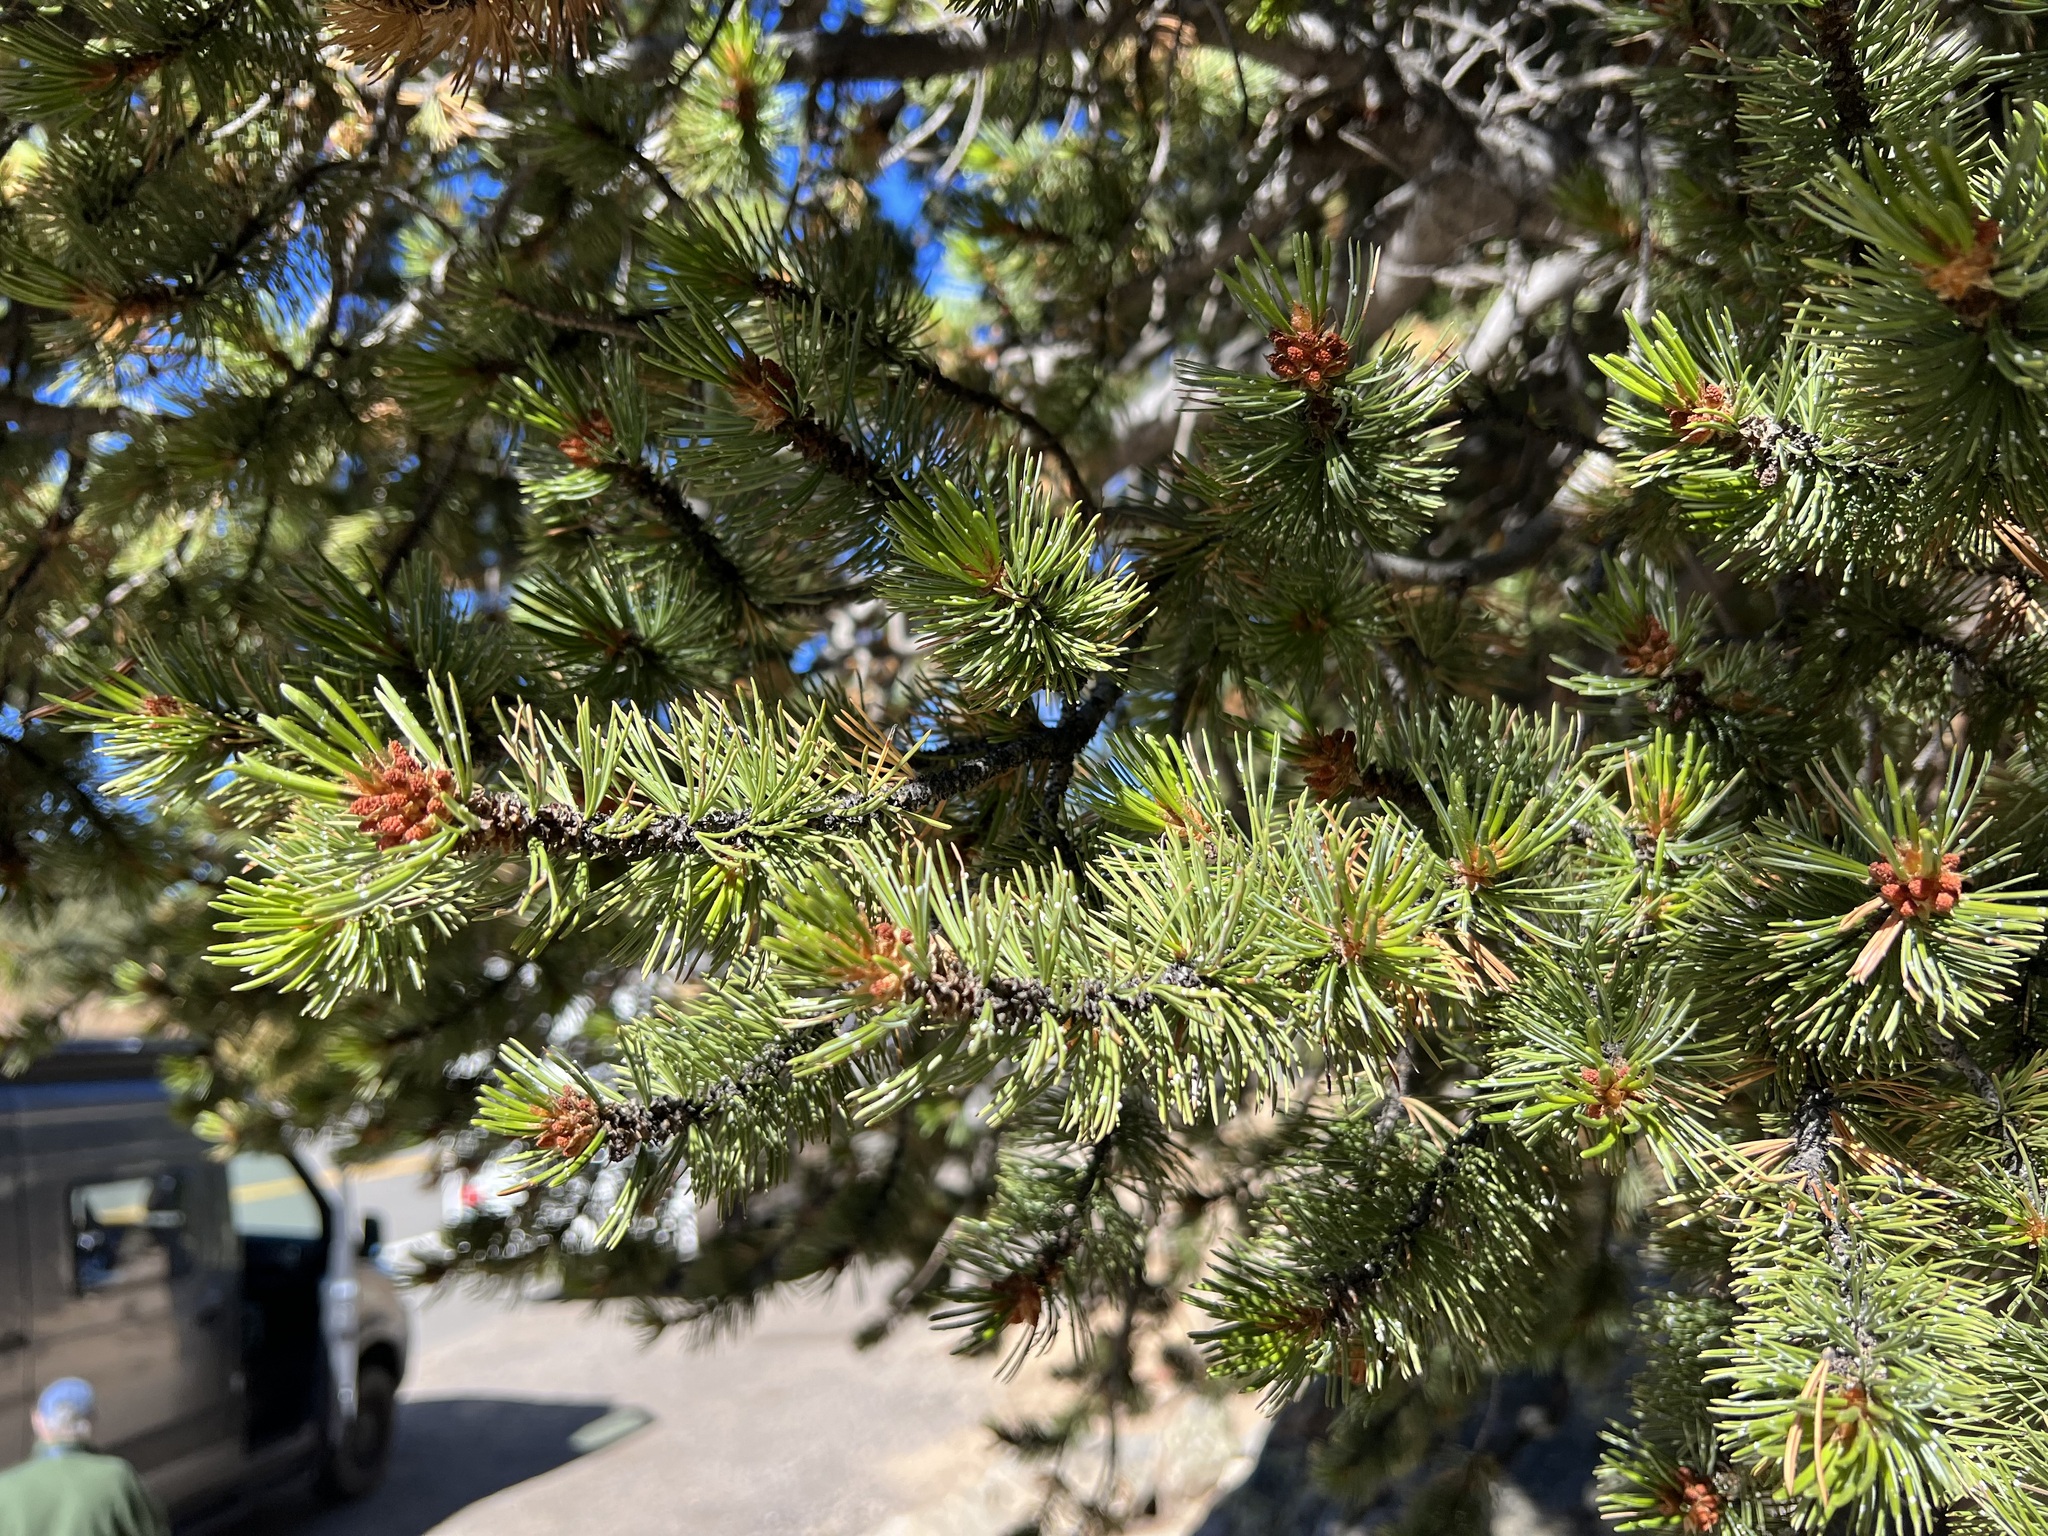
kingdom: Plantae
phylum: Tracheophyta
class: Pinopsida
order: Pinales
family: Pinaceae
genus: Pinus
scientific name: Pinus aristata
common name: Colorado bristlecone pine
